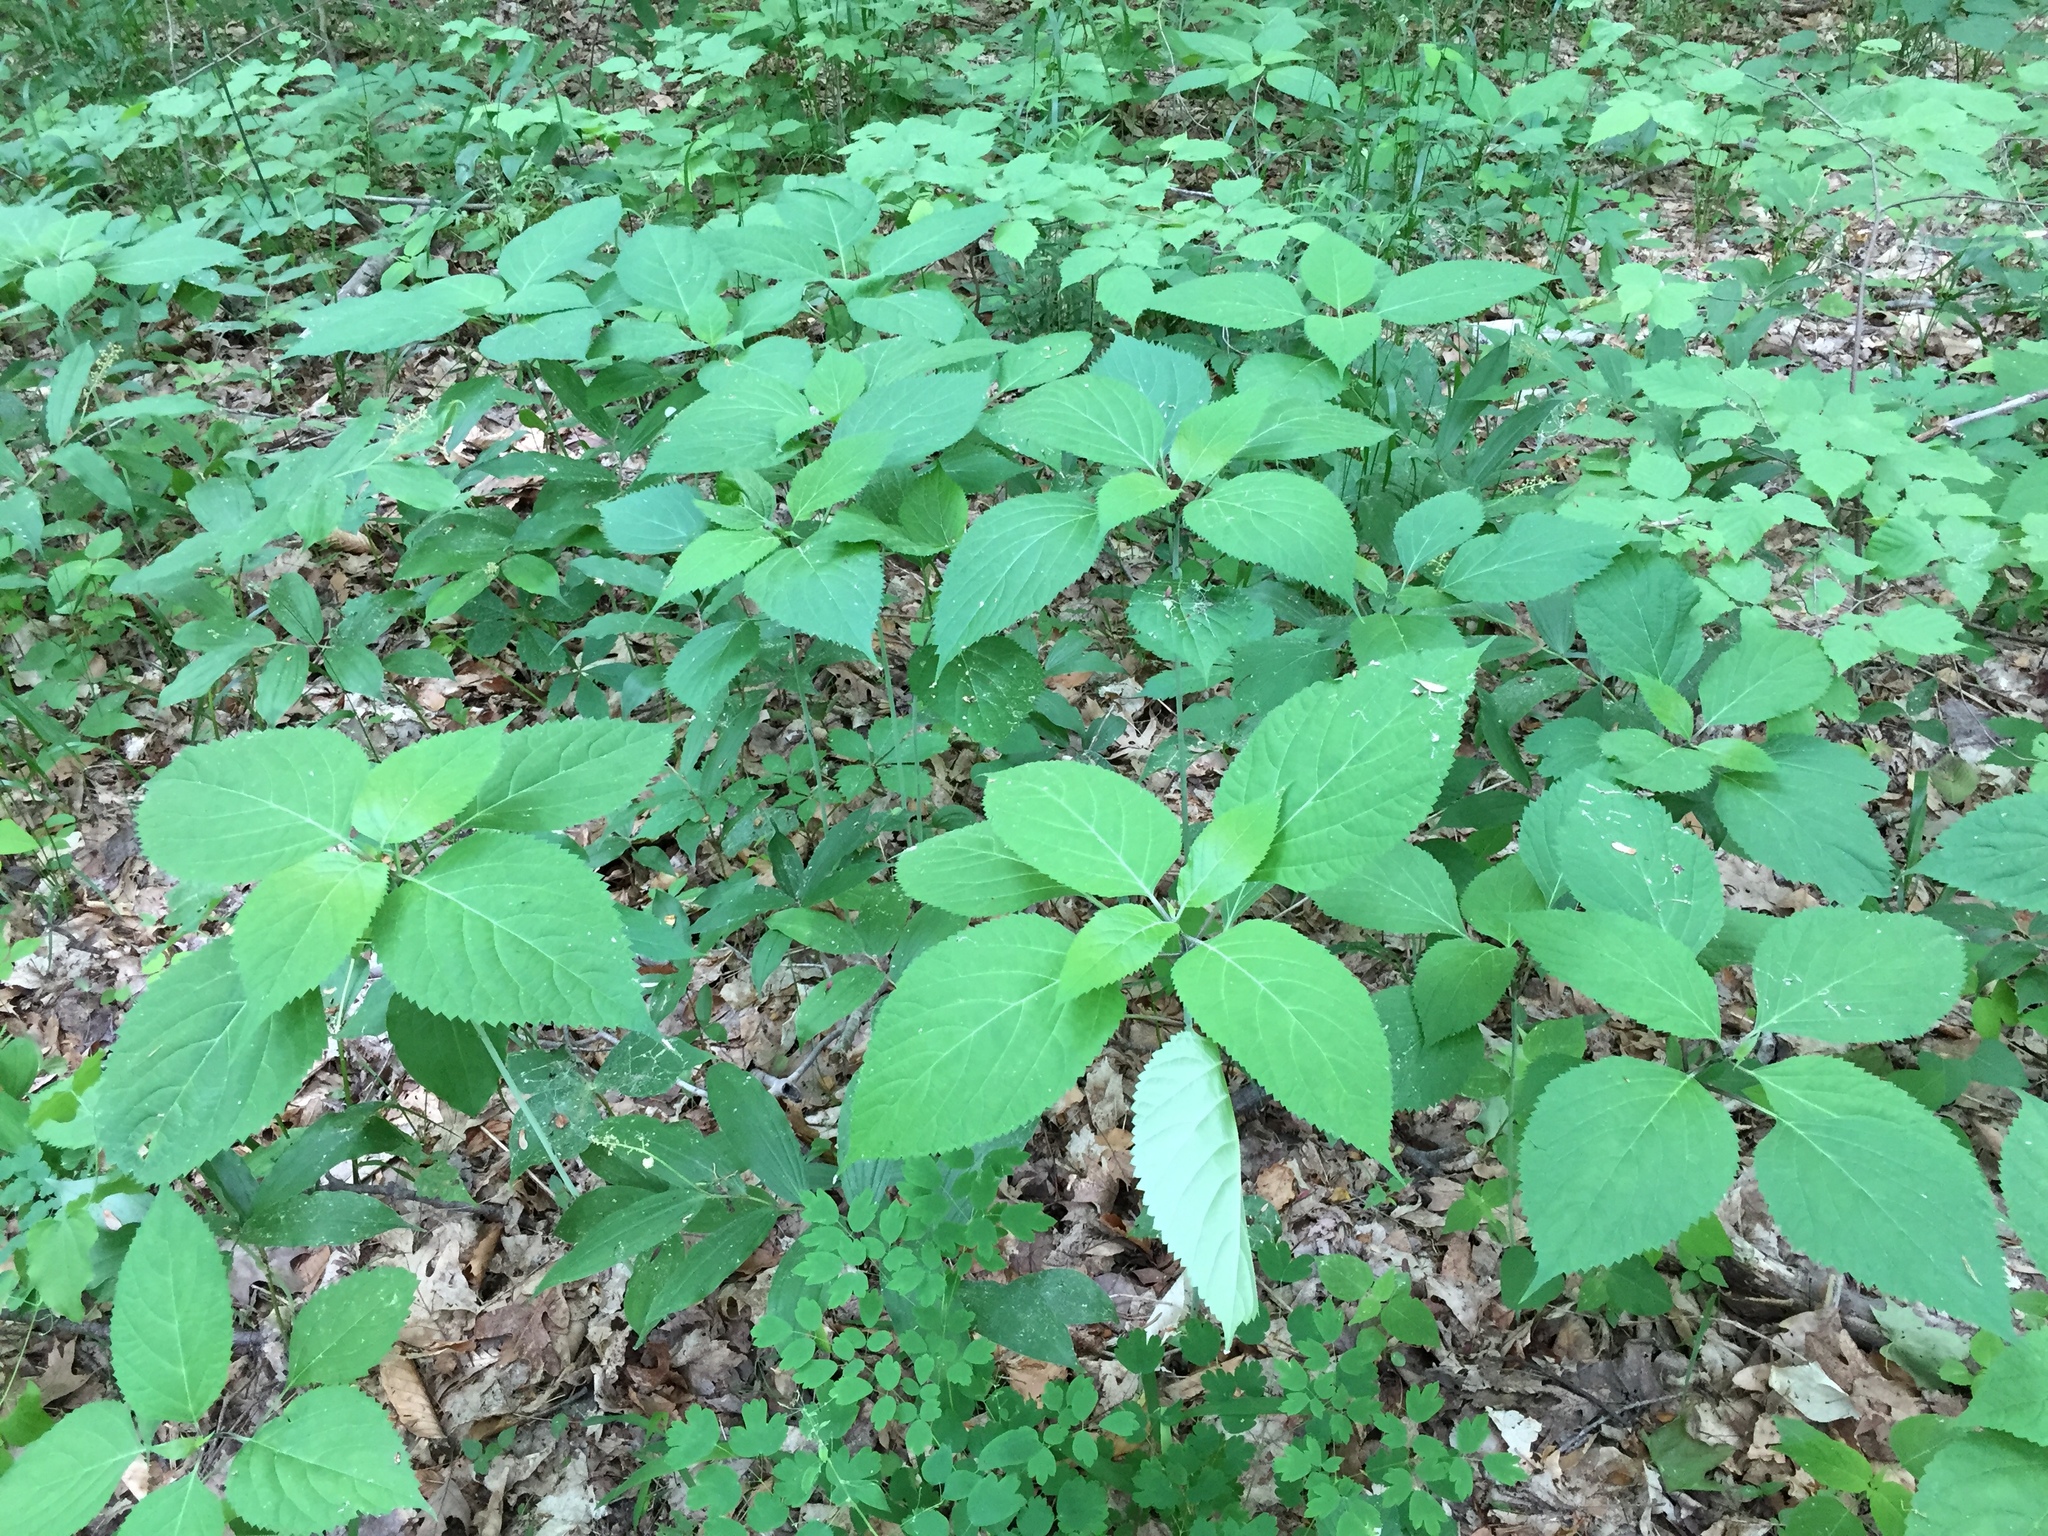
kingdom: Plantae
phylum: Tracheophyta
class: Magnoliopsida
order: Lamiales
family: Lamiaceae
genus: Collinsonia
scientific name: Collinsonia canadensis
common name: Northern horsebalm
